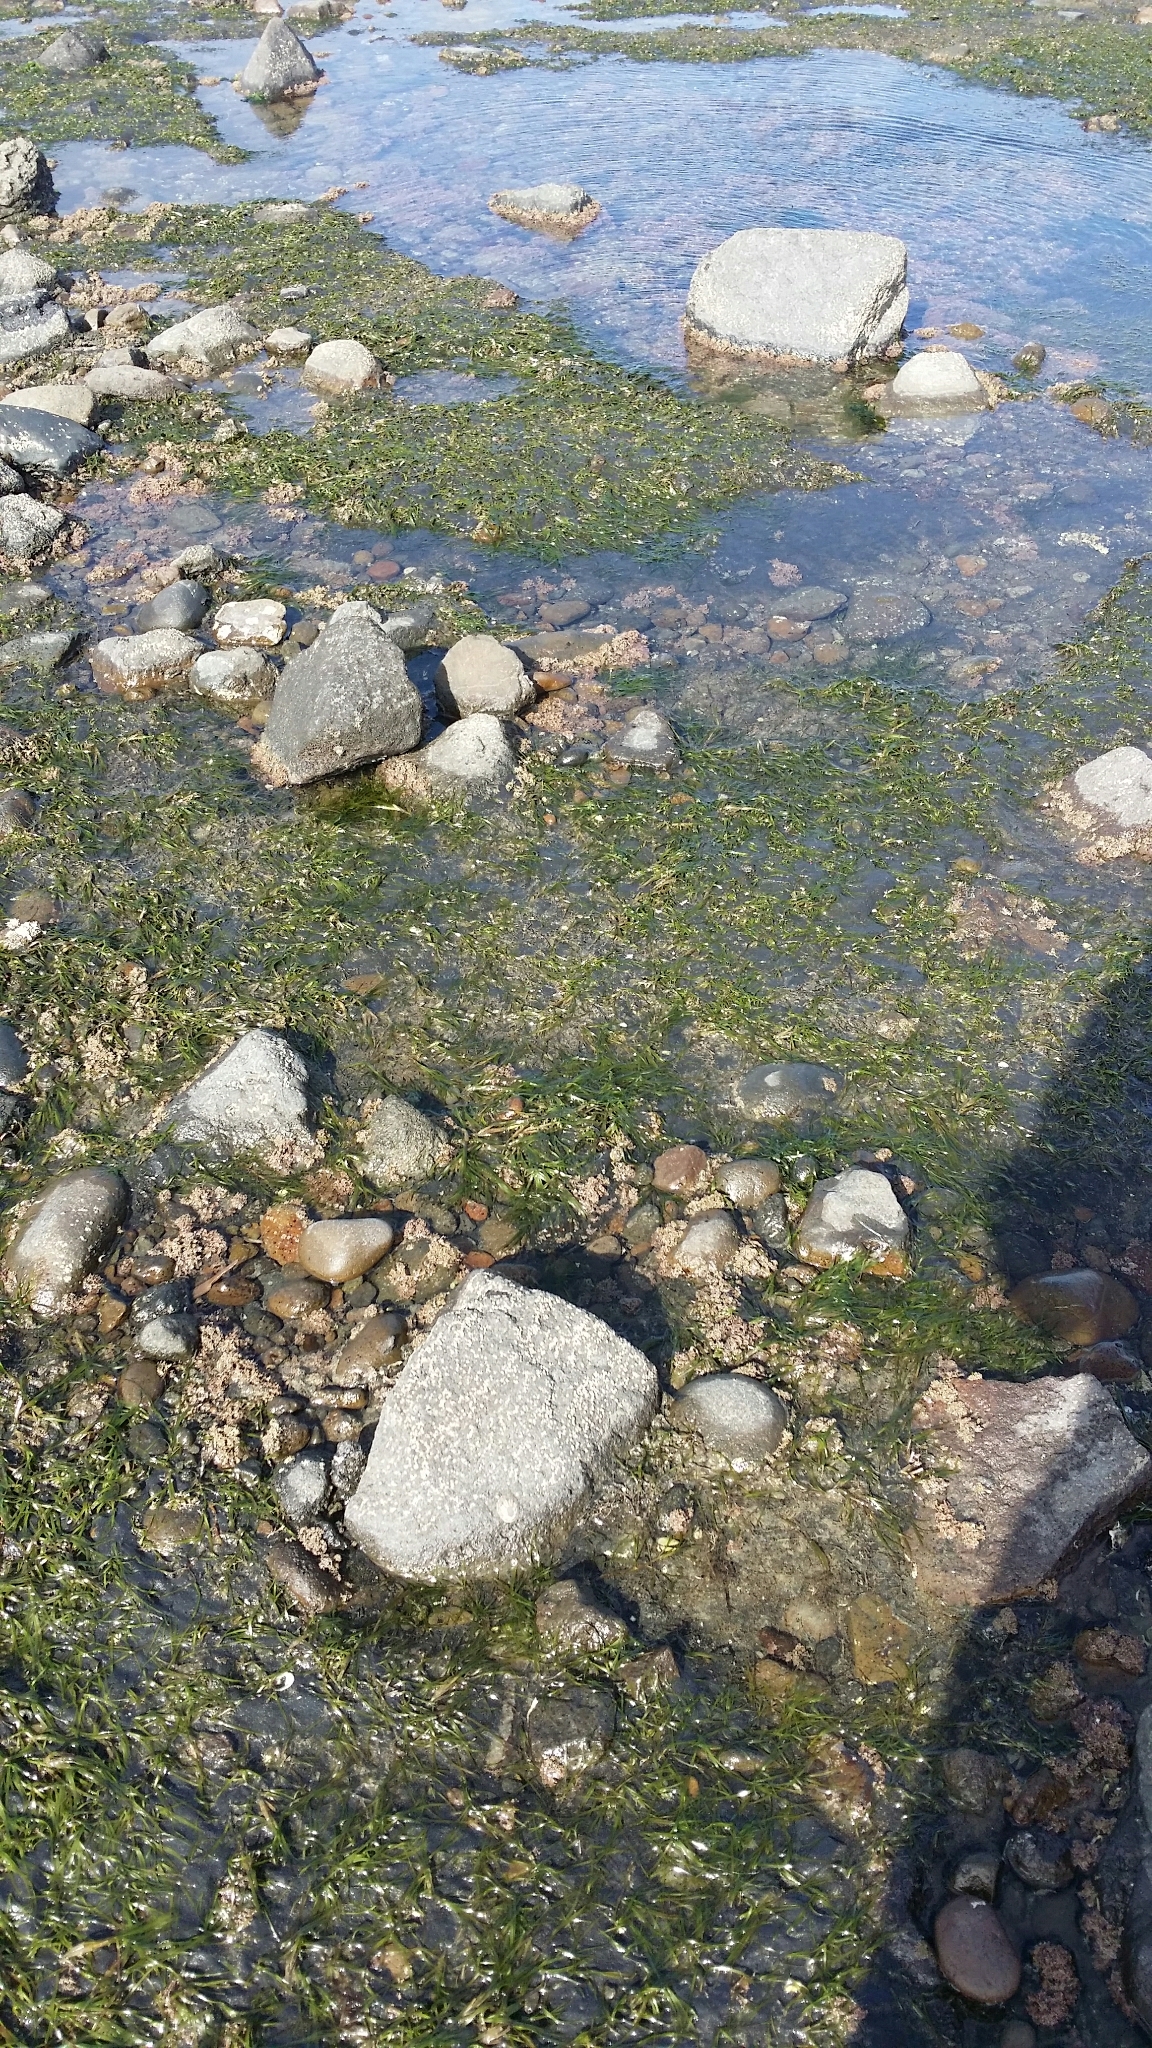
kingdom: Plantae
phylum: Tracheophyta
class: Liliopsida
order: Alismatales
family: Zosteraceae
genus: Zostera
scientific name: Zostera novazelandica
